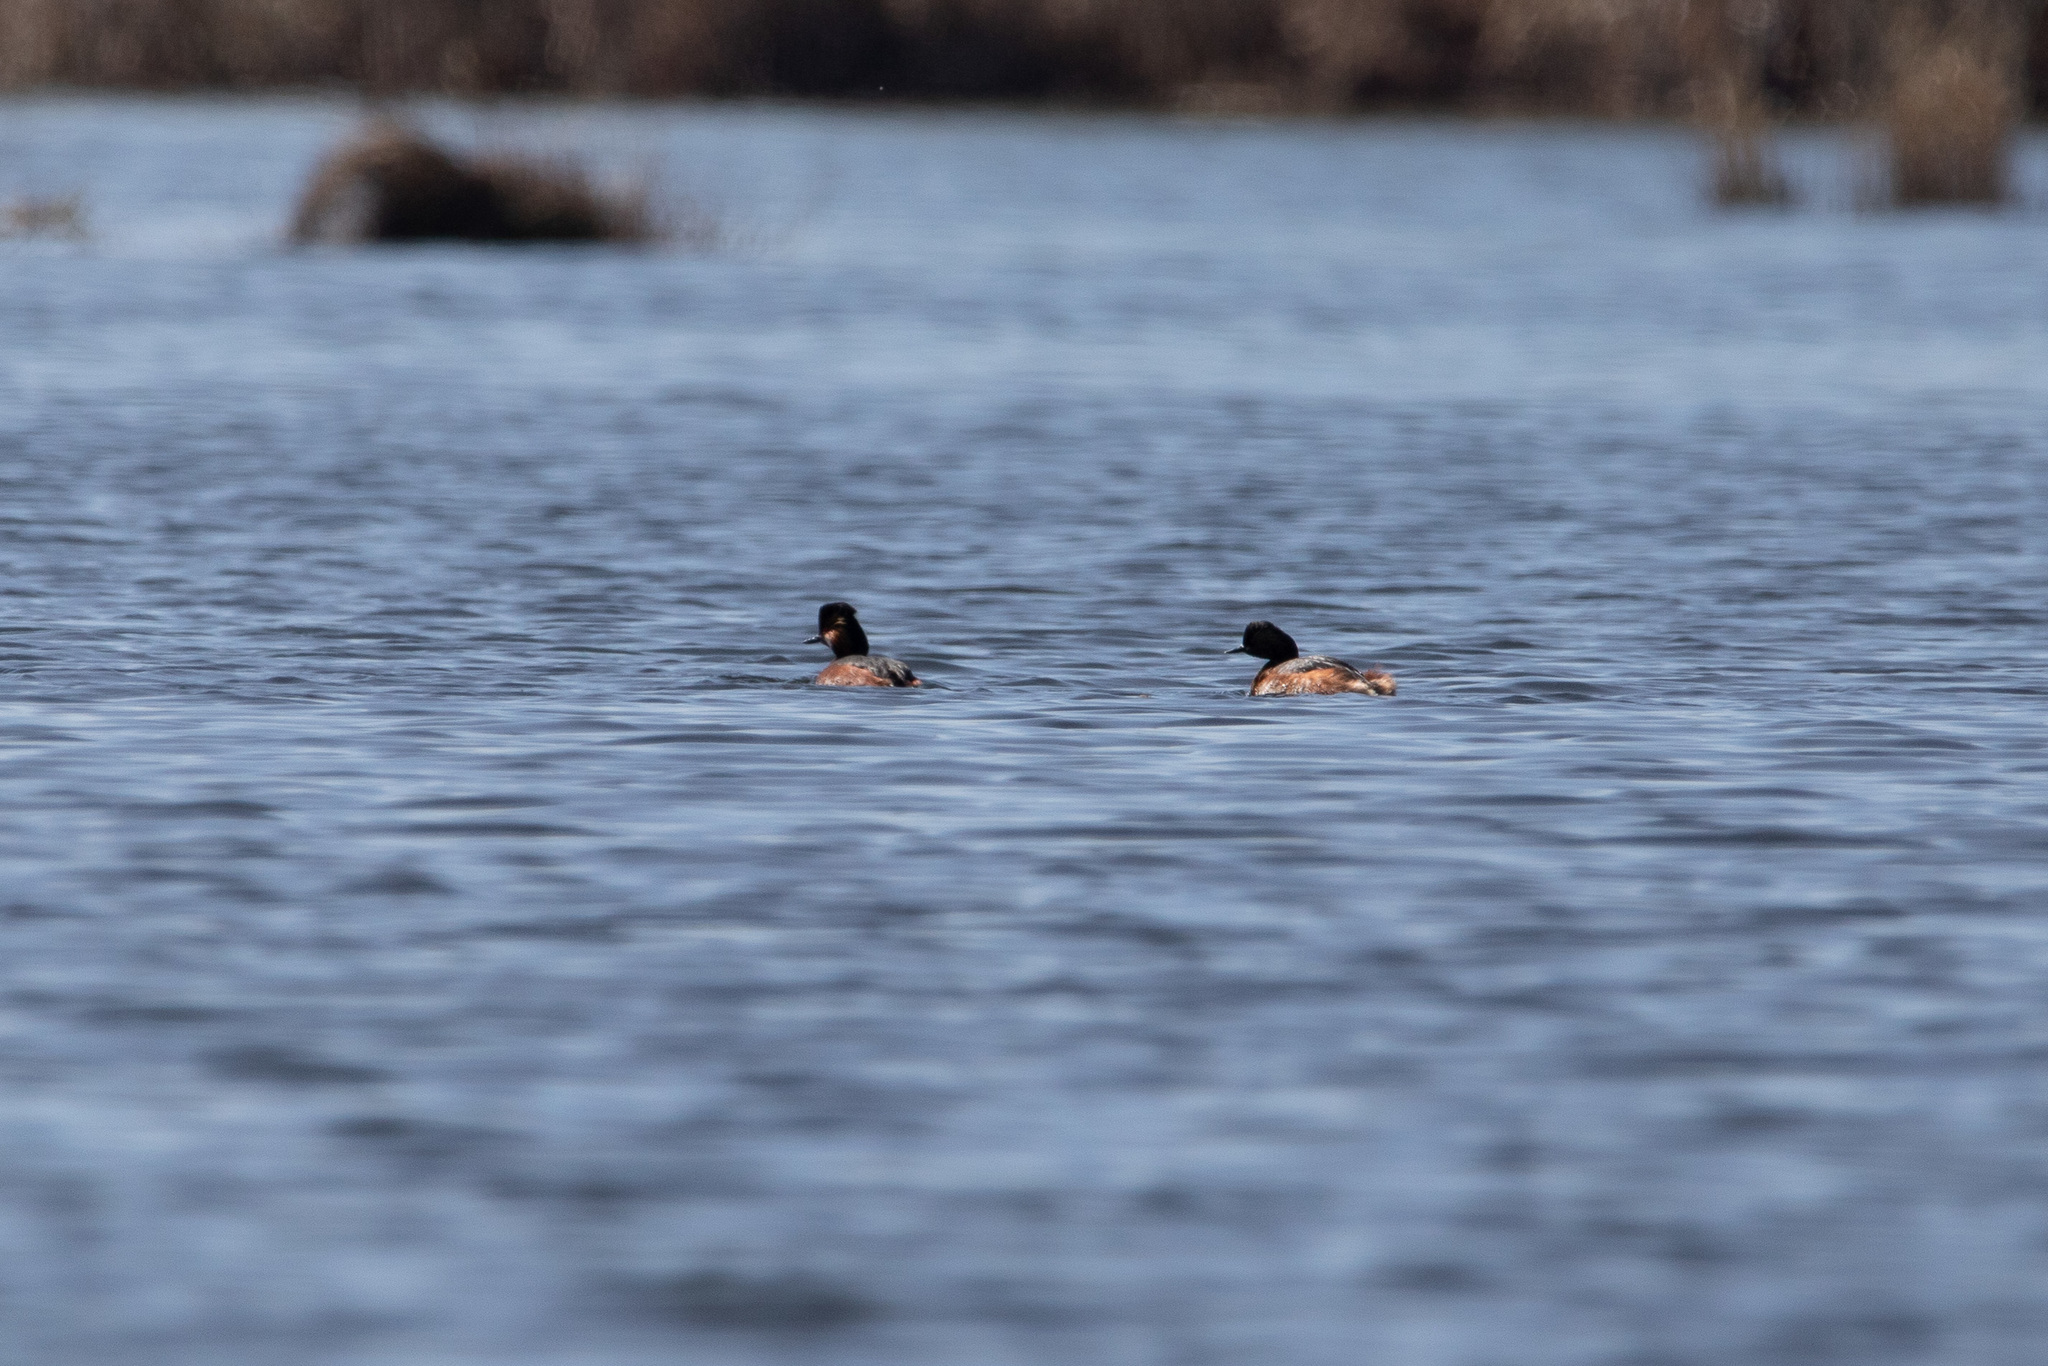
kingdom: Animalia
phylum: Chordata
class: Aves
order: Podicipediformes
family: Podicipedidae
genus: Podiceps
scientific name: Podiceps nigricollis
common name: Black-necked grebe
